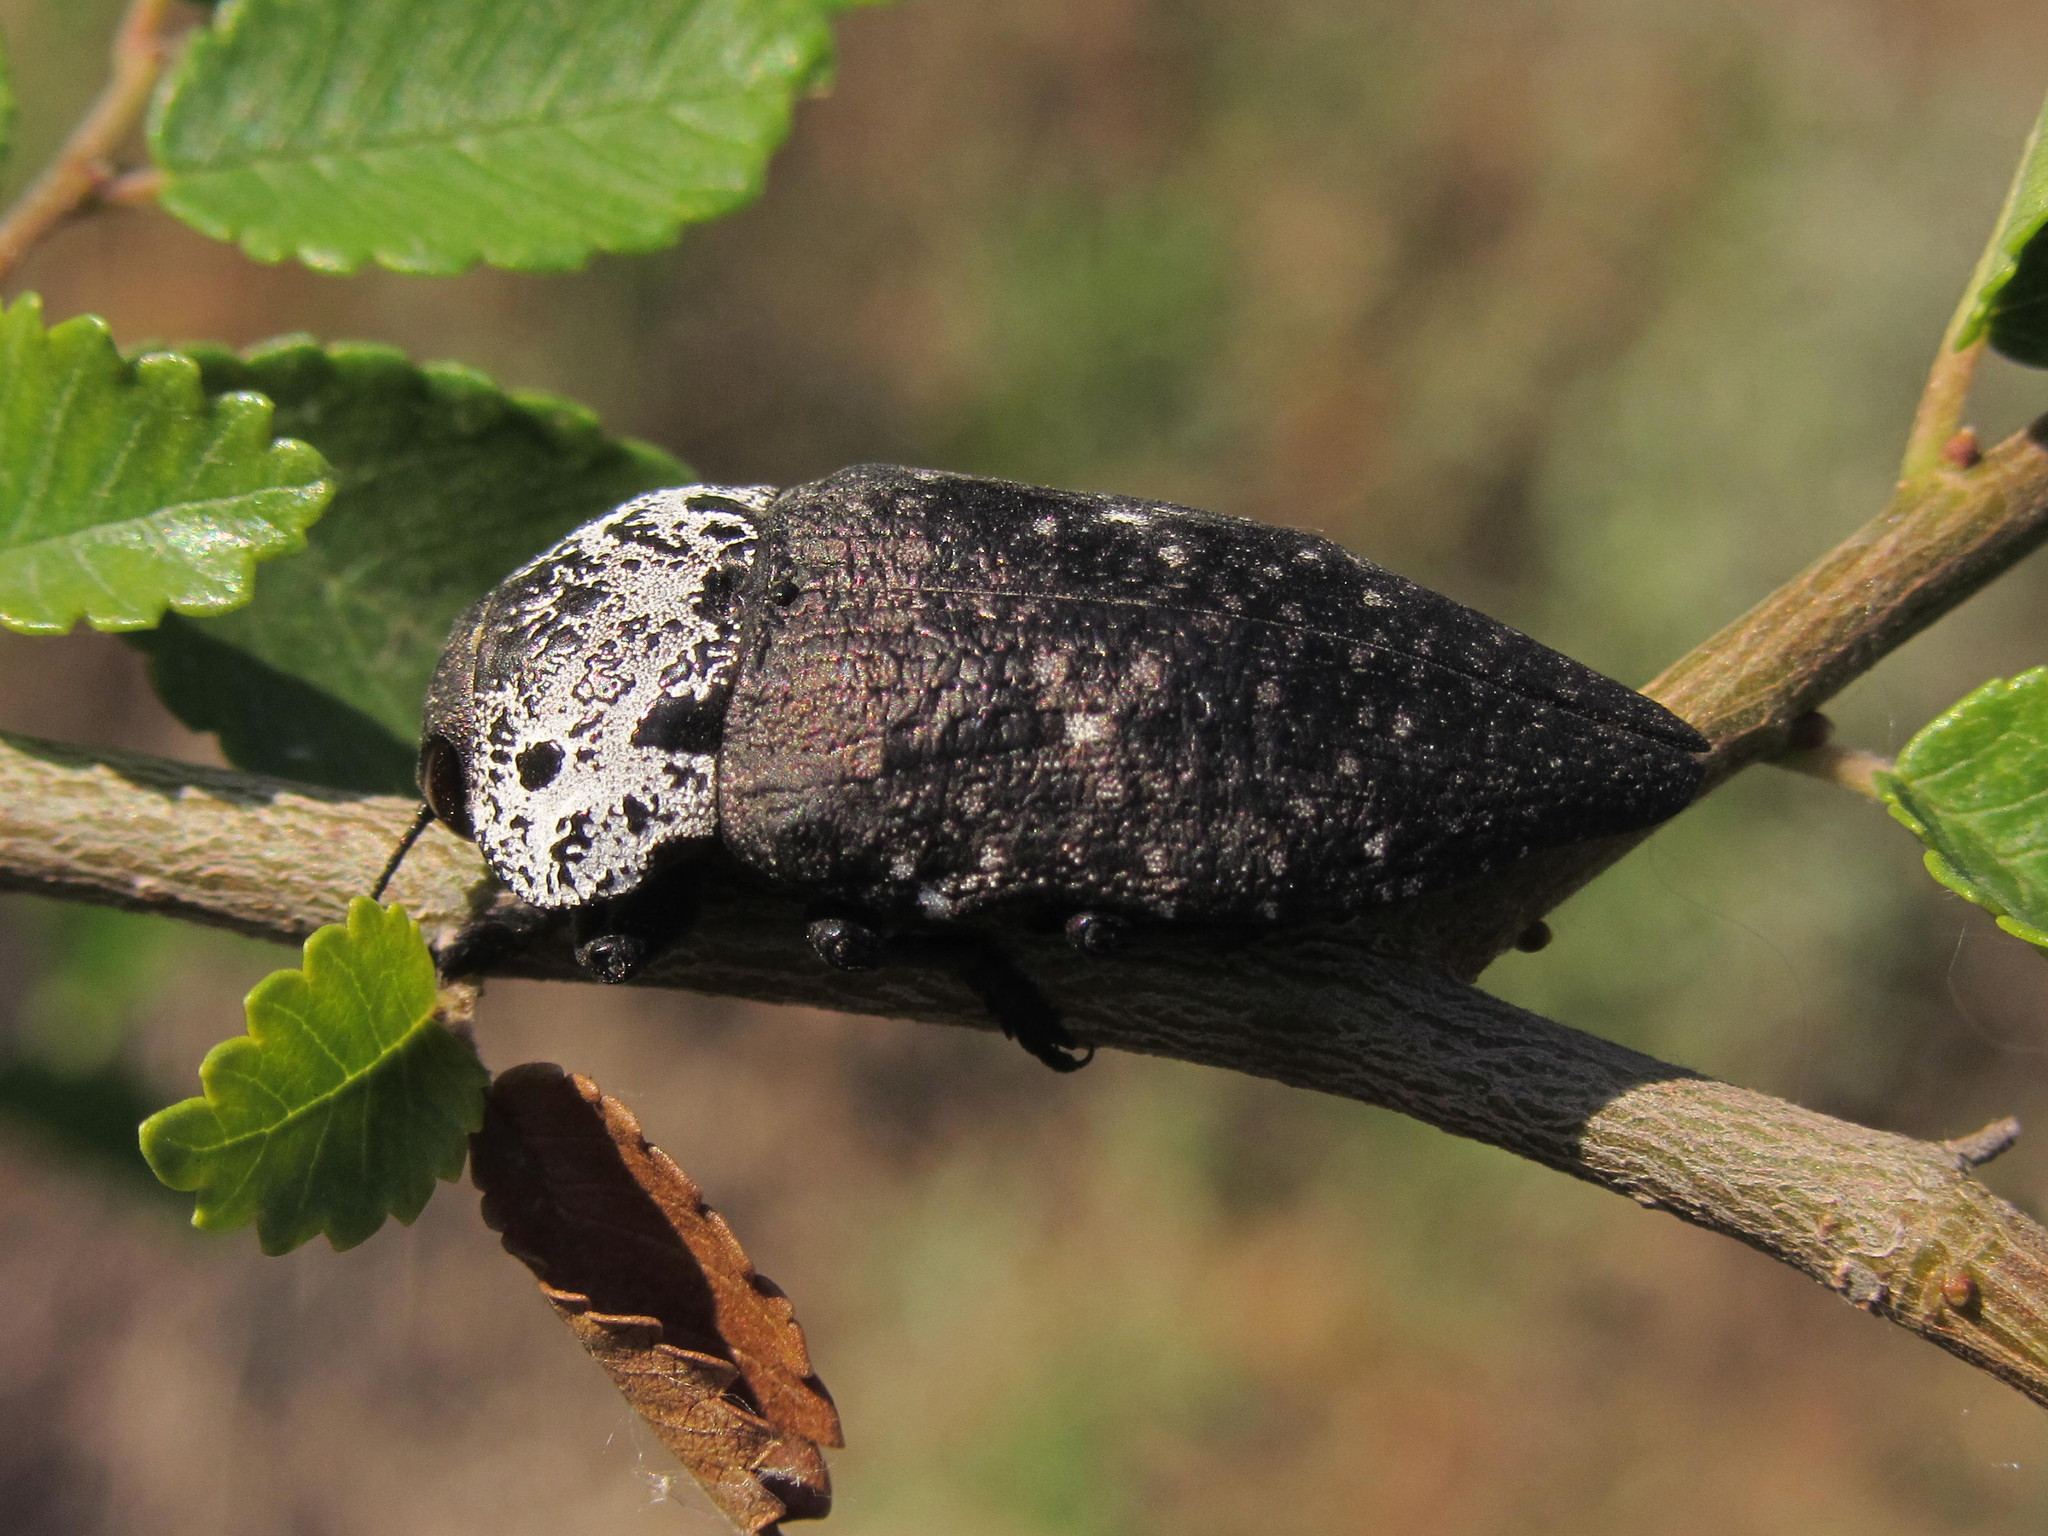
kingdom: Animalia
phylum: Arthropoda
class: Insecta
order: Coleoptera
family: Buprestidae
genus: Capnodis
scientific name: Capnodis tenebrionis
